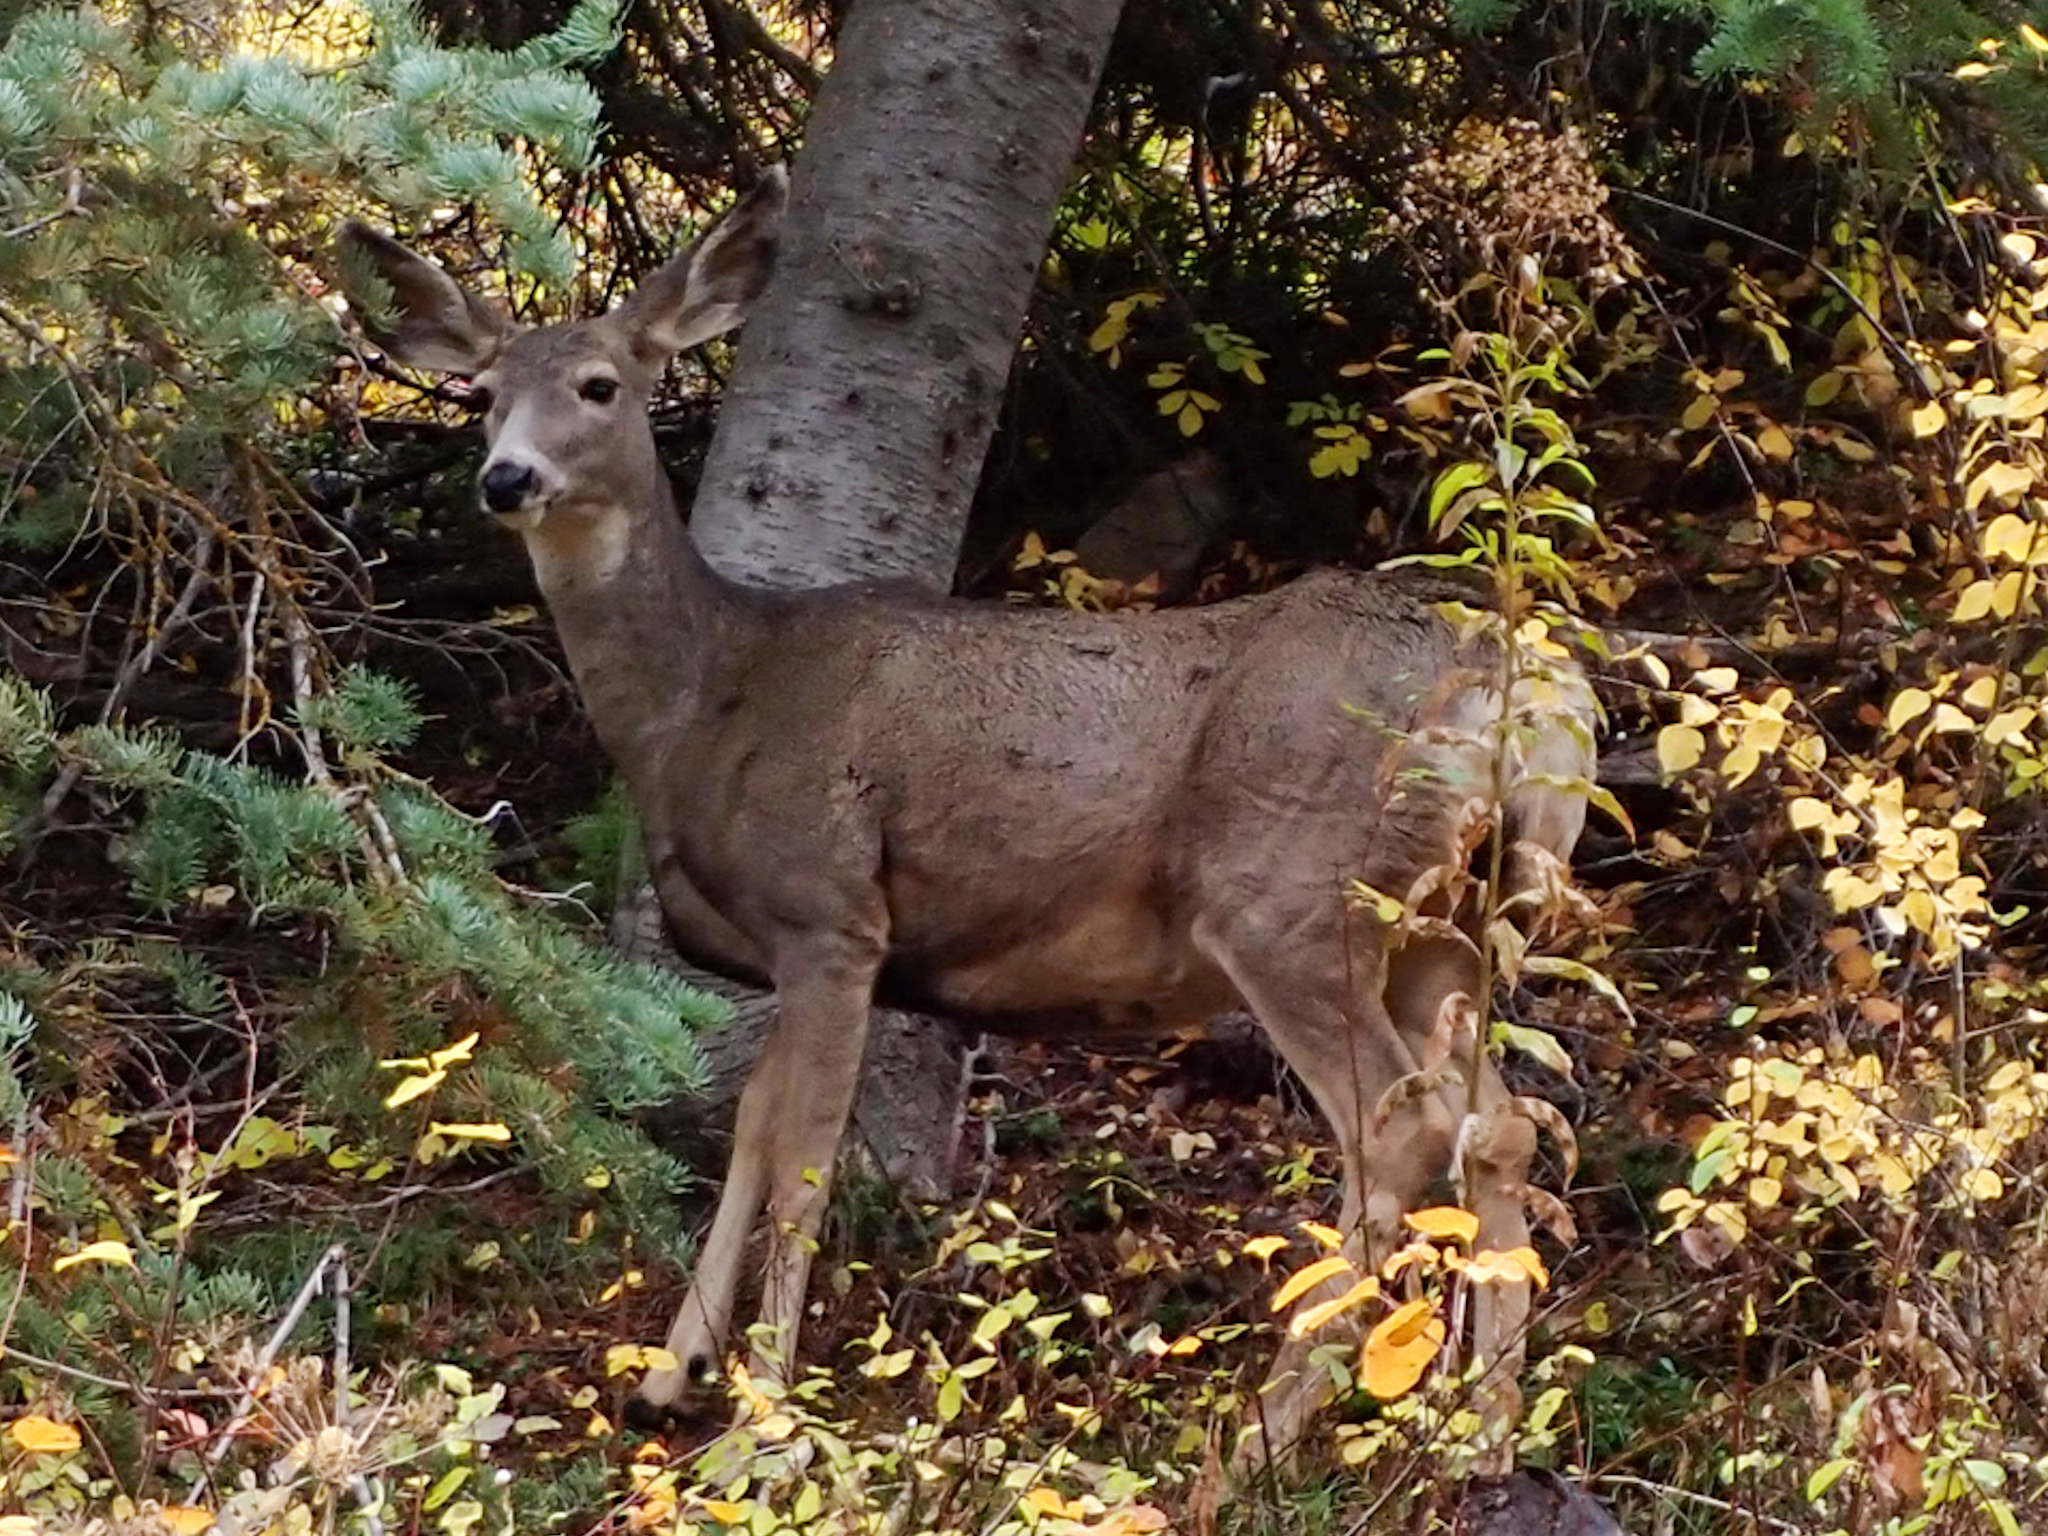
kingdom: Animalia
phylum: Chordata
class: Mammalia
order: Artiodactyla
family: Cervidae
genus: Odocoileus
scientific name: Odocoileus hemionus
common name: Mule deer
